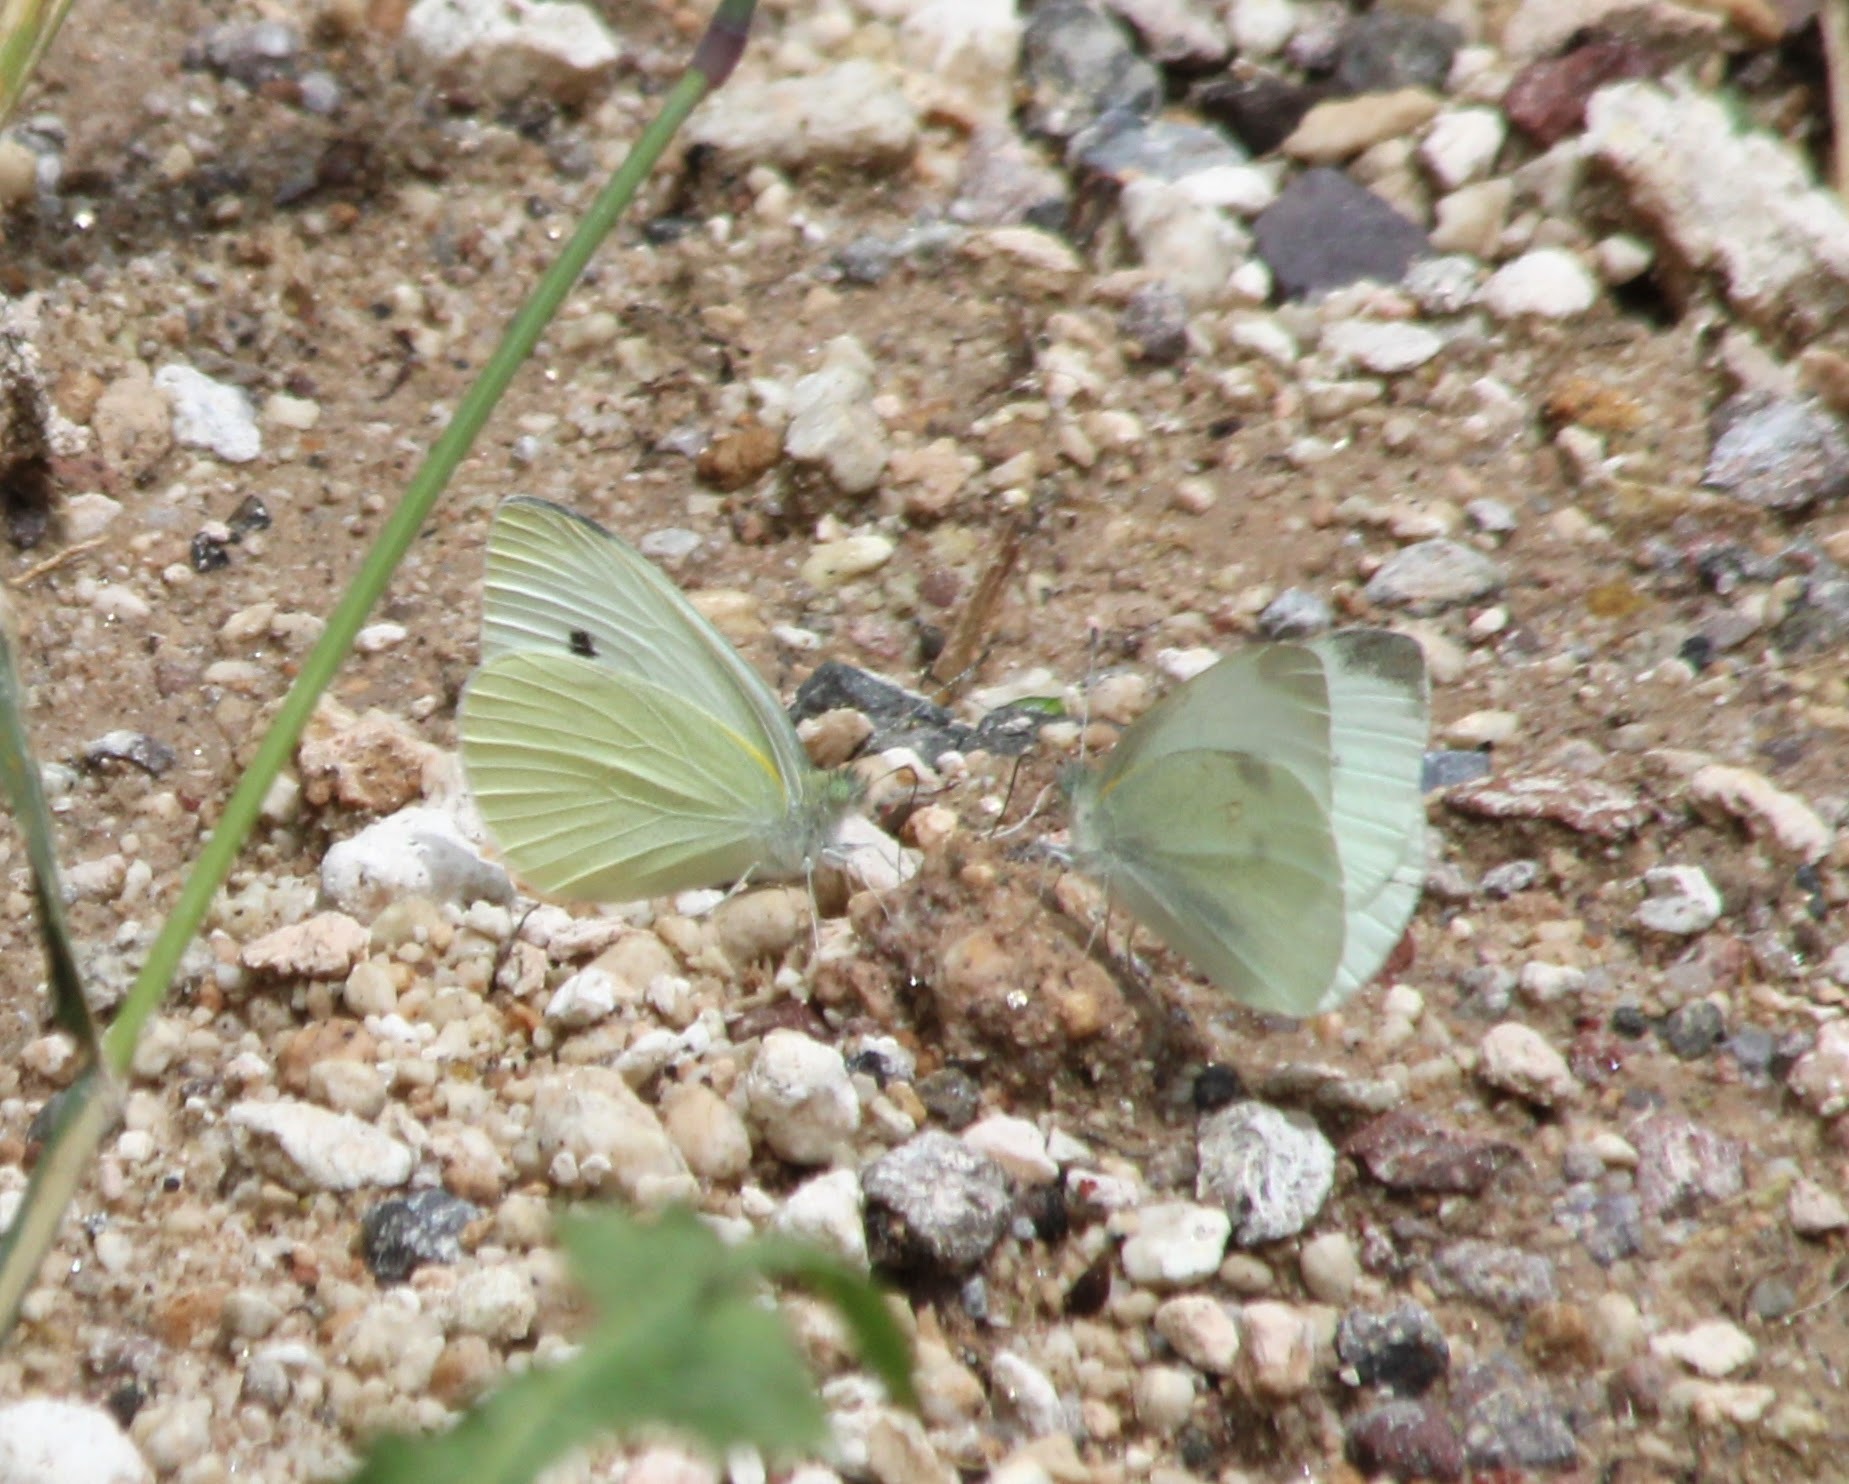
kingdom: Animalia
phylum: Arthropoda
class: Insecta
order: Lepidoptera
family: Pieridae
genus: Pieris
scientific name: Pieris rapae
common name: Small white
